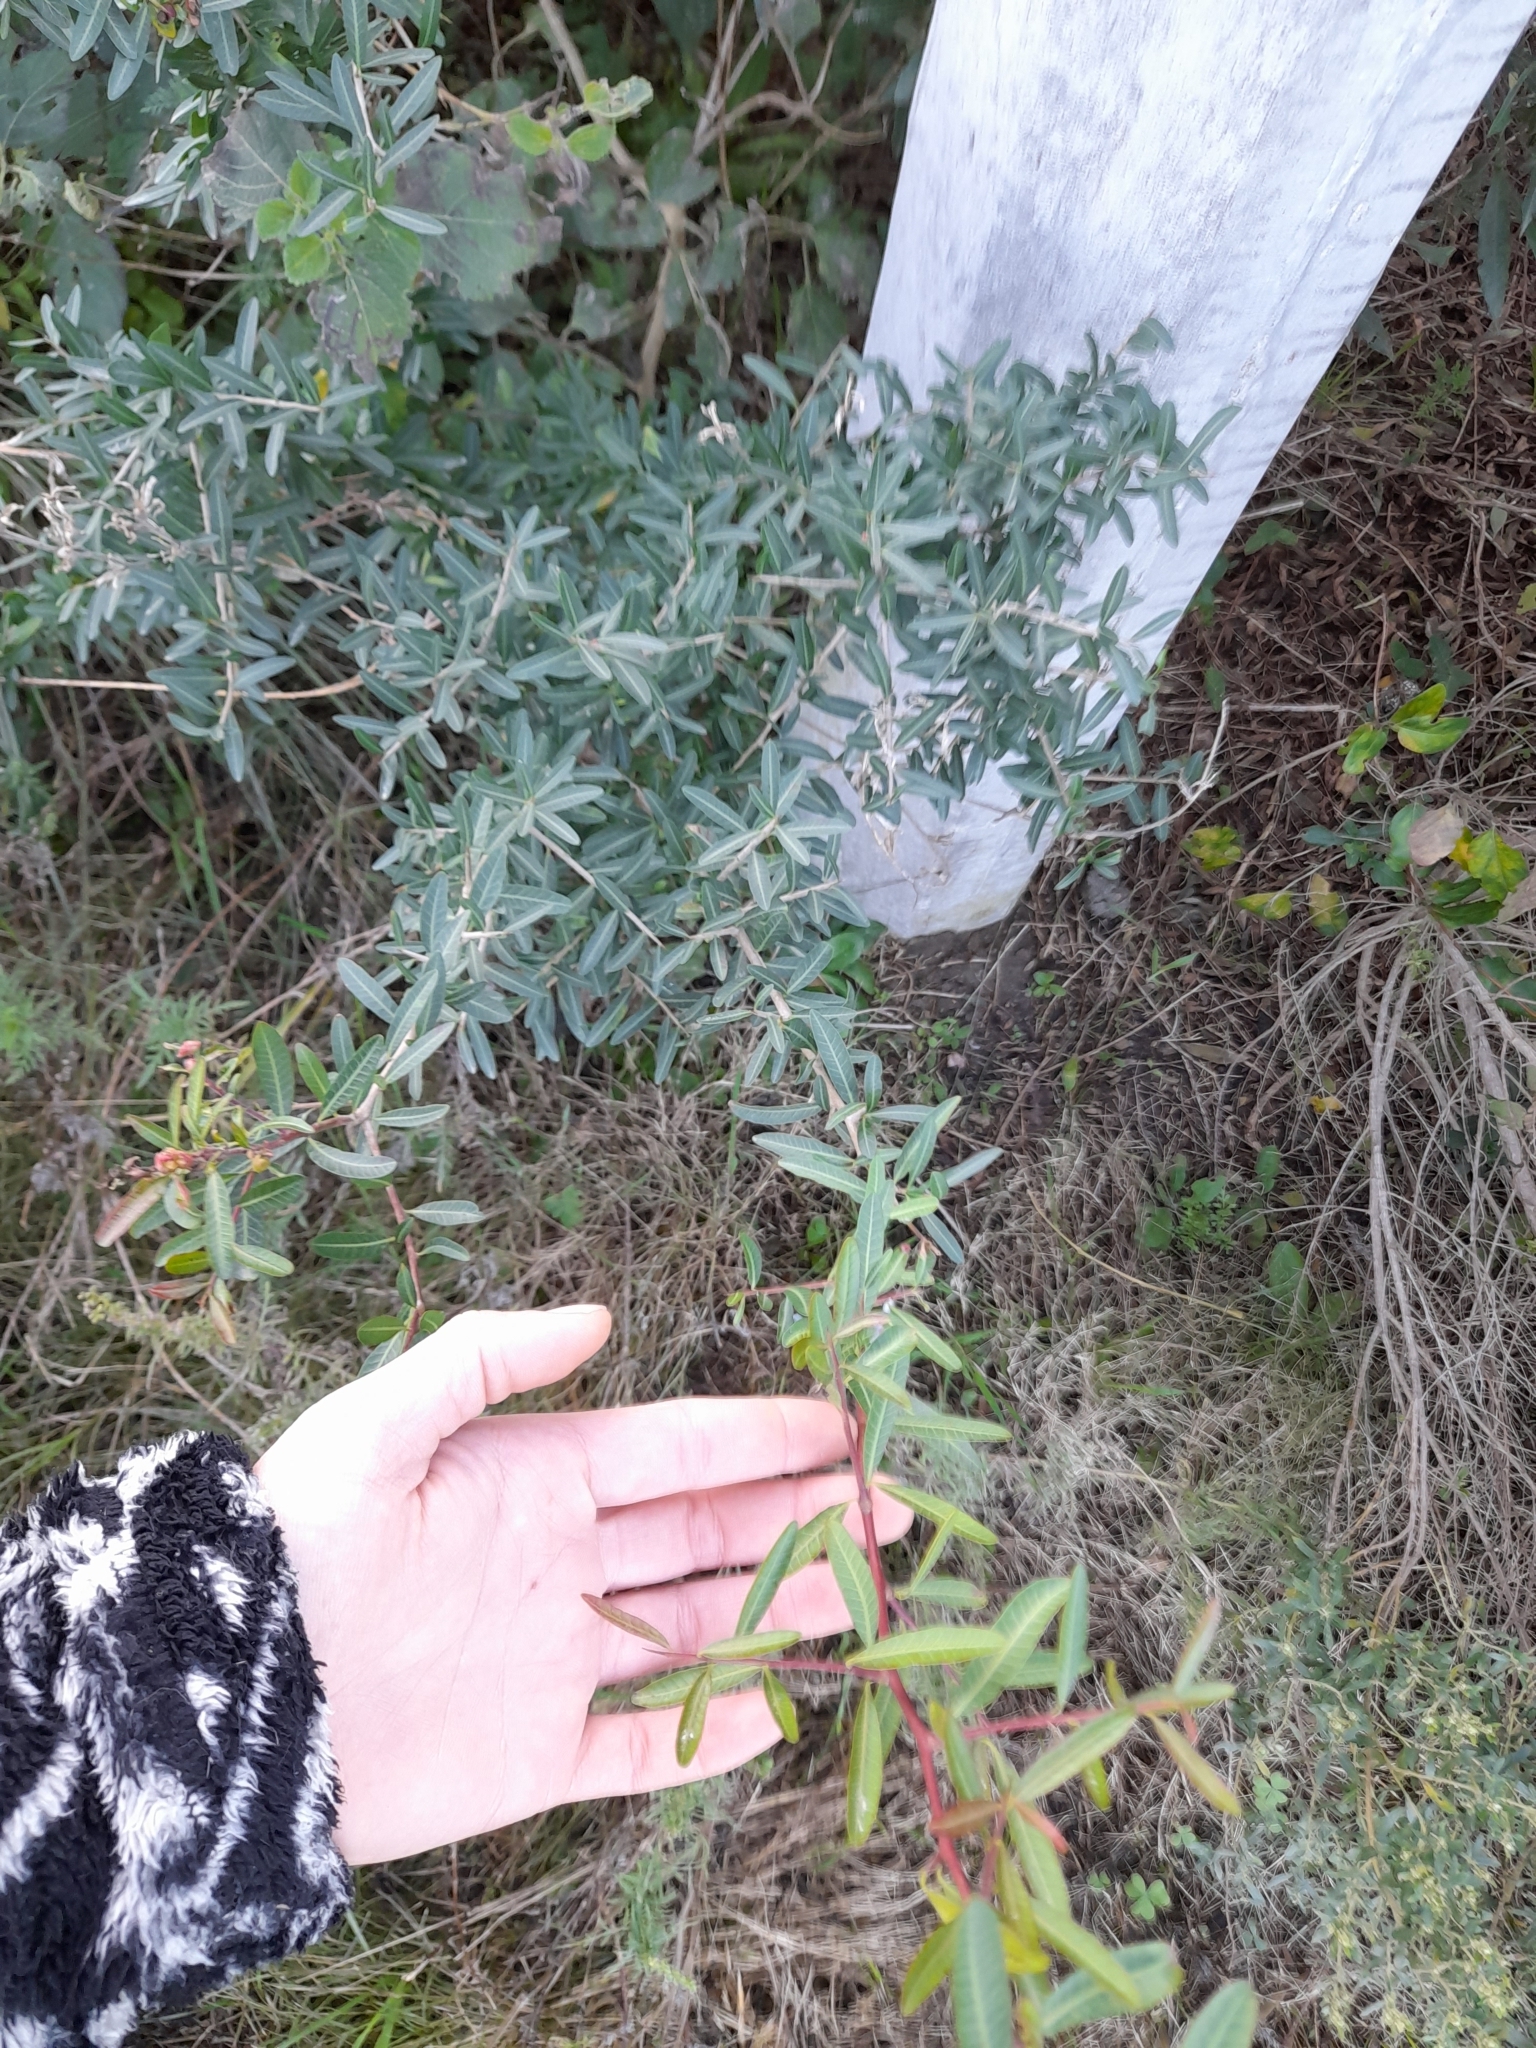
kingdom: Plantae
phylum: Tracheophyta
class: Magnoliopsida
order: Sapindales
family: Anacardiaceae
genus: Schinus
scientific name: Schinus longifolia
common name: Longleaf peppertree
